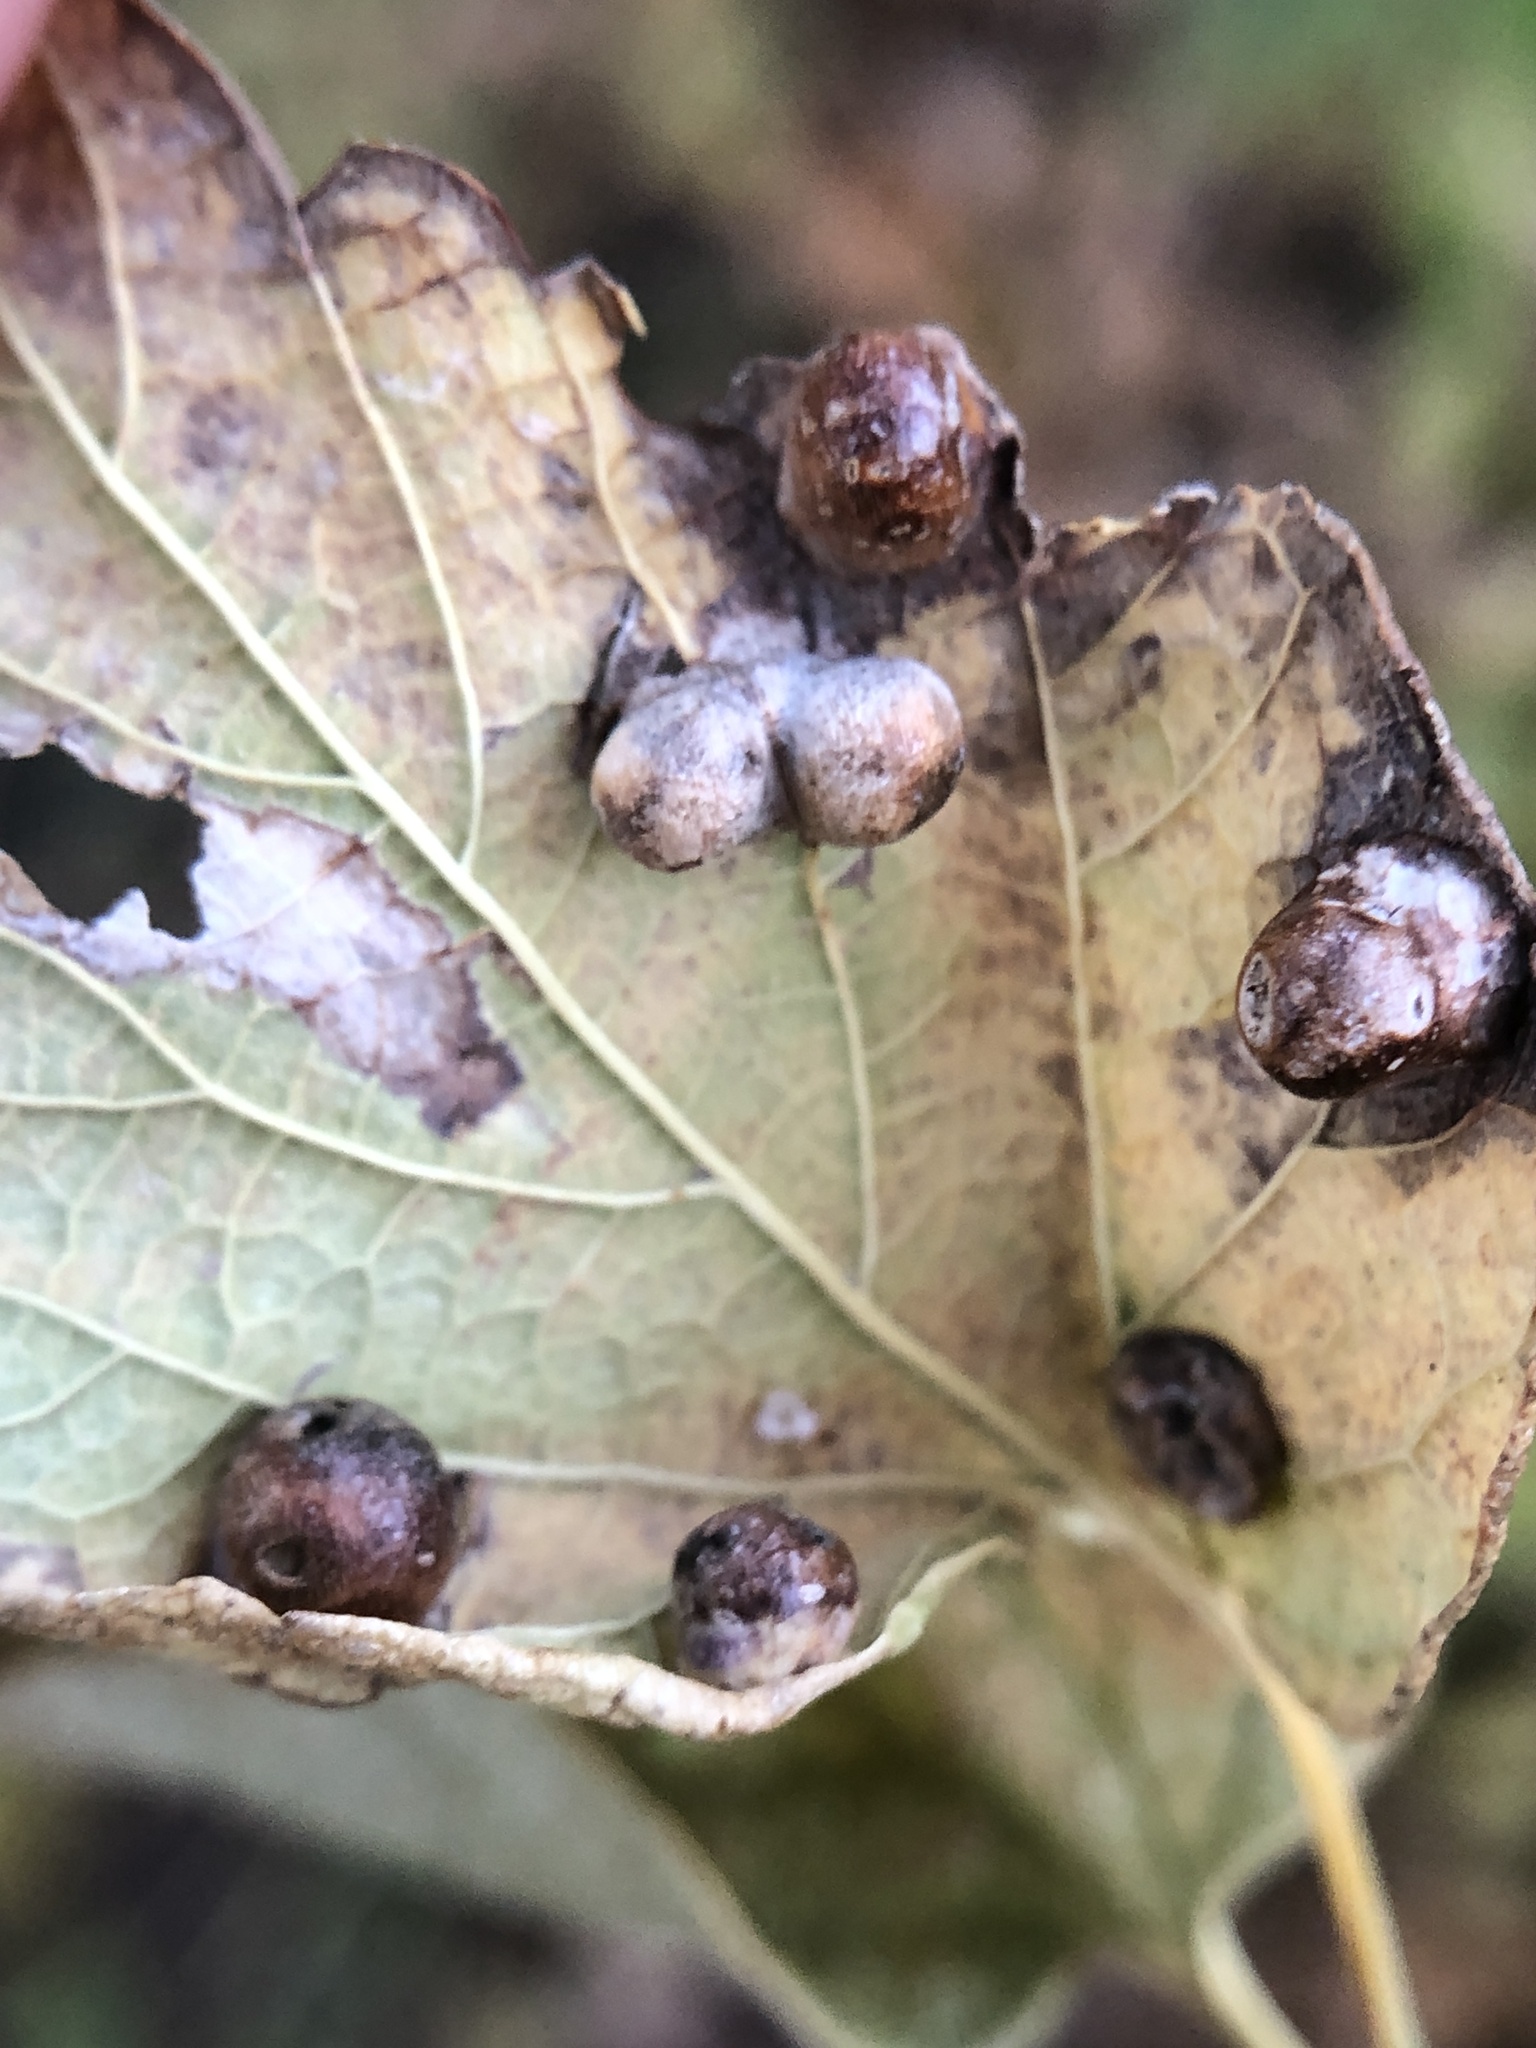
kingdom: Animalia
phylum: Arthropoda
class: Insecta
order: Hemiptera
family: Aphalaridae
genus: Pachypsylla
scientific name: Pachypsylla celtidismamma
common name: Hackberry nipplegall psyllid
